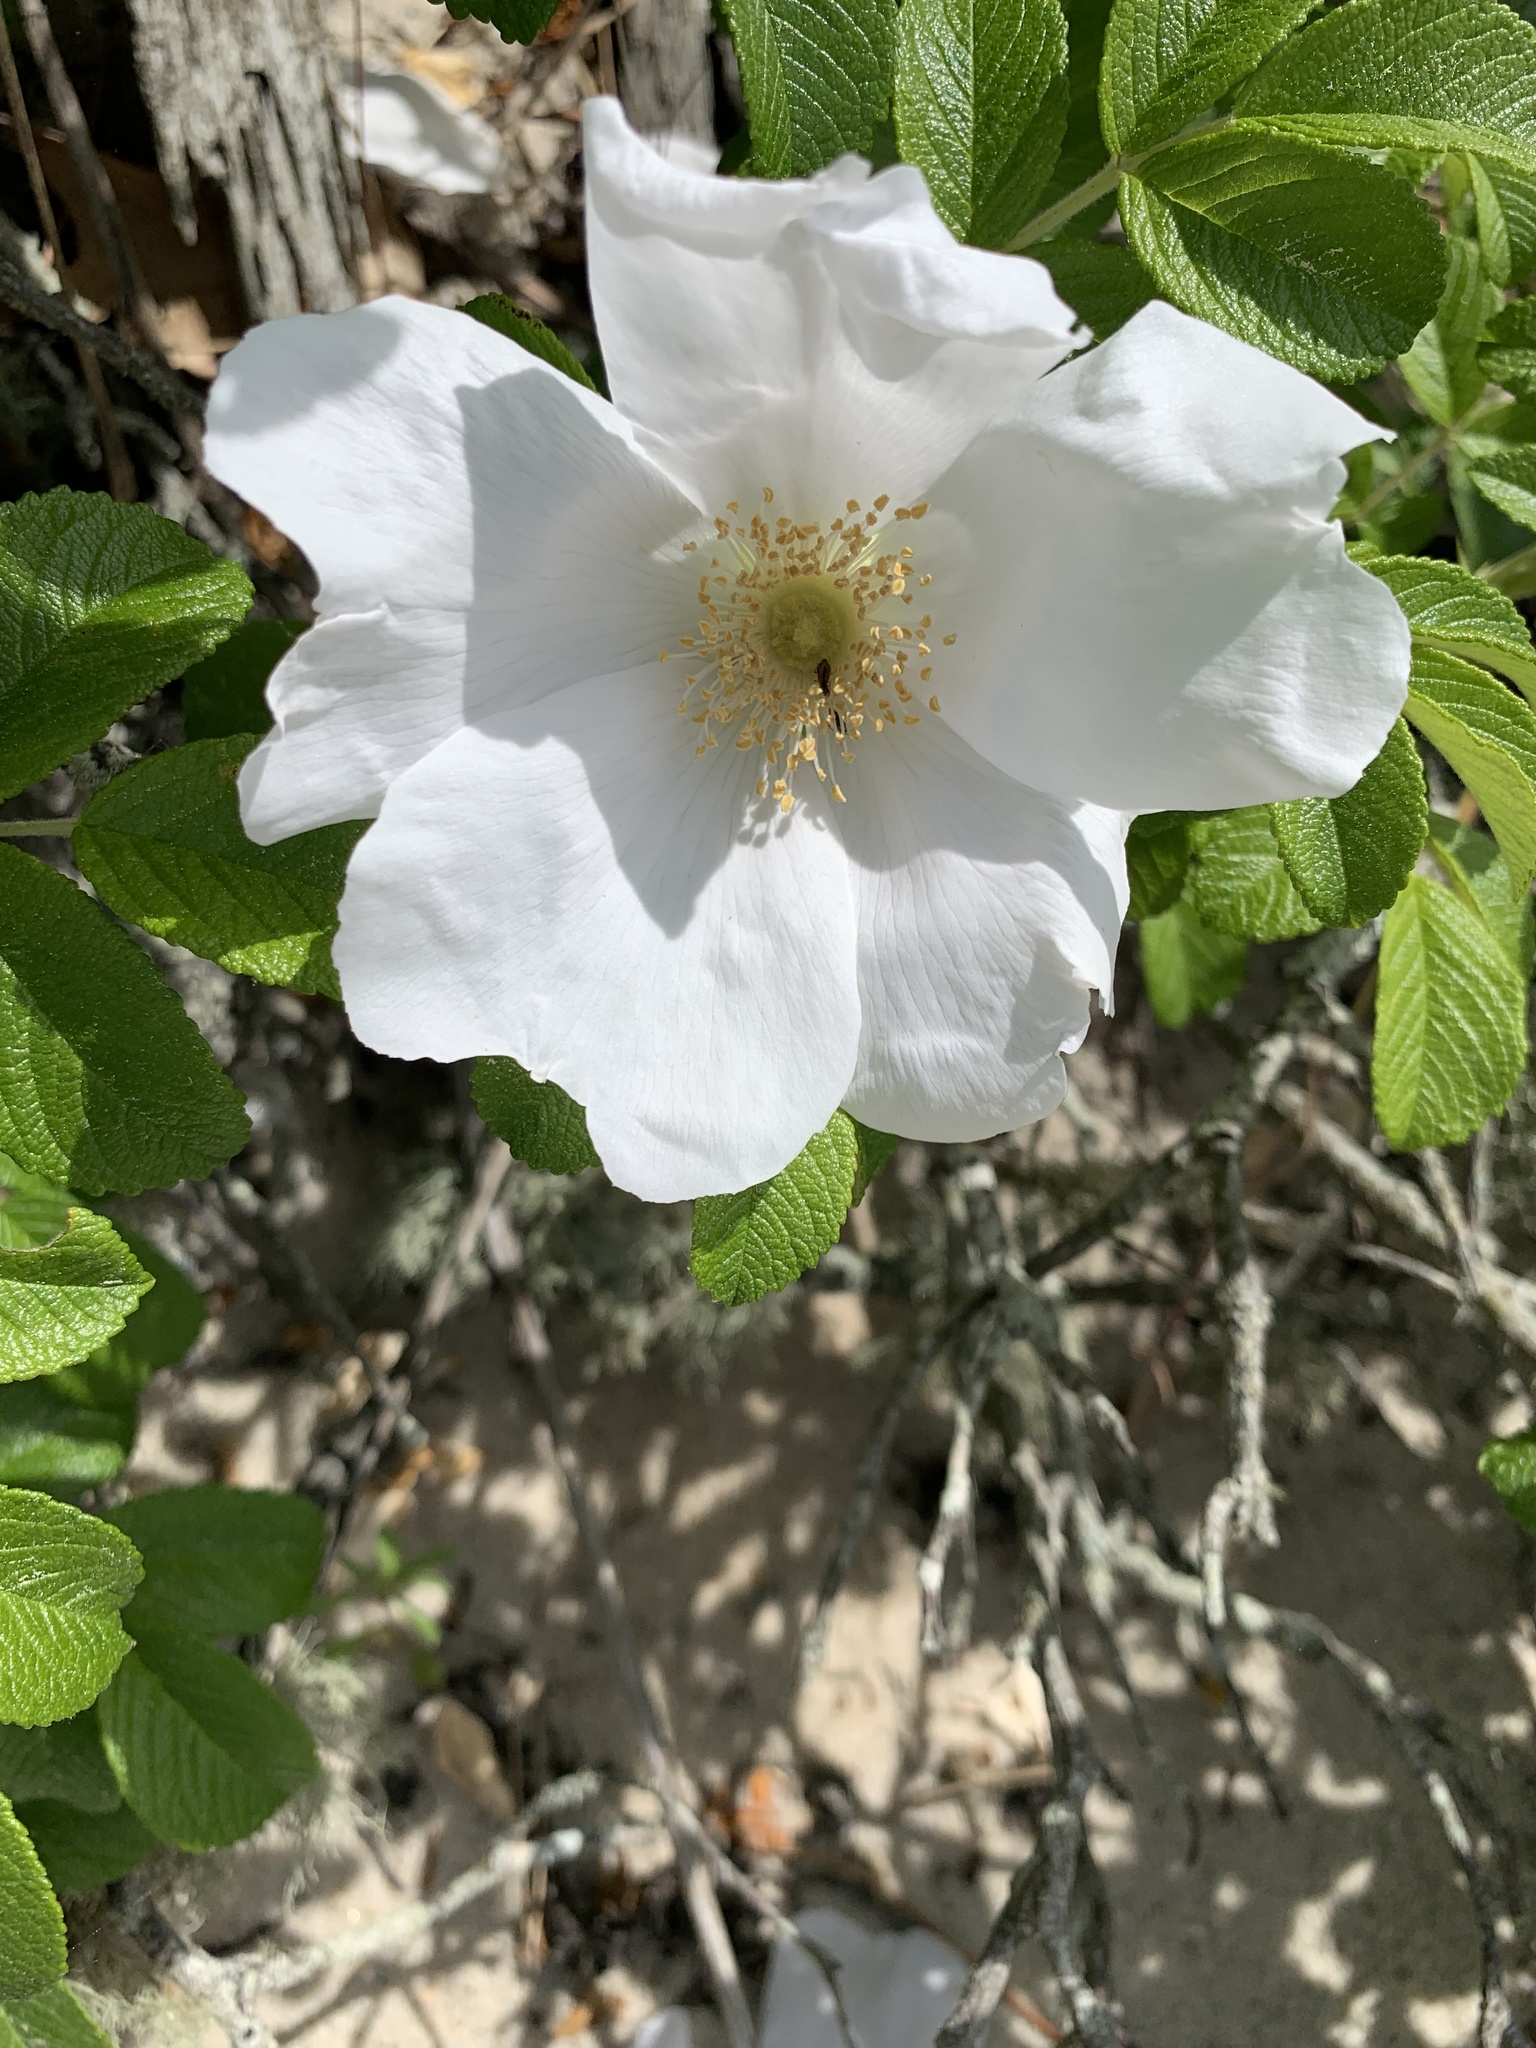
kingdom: Plantae
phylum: Tracheophyta
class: Magnoliopsida
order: Rosales
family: Rosaceae
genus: Rosa
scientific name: Rosa rugosa
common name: Japanese rose
